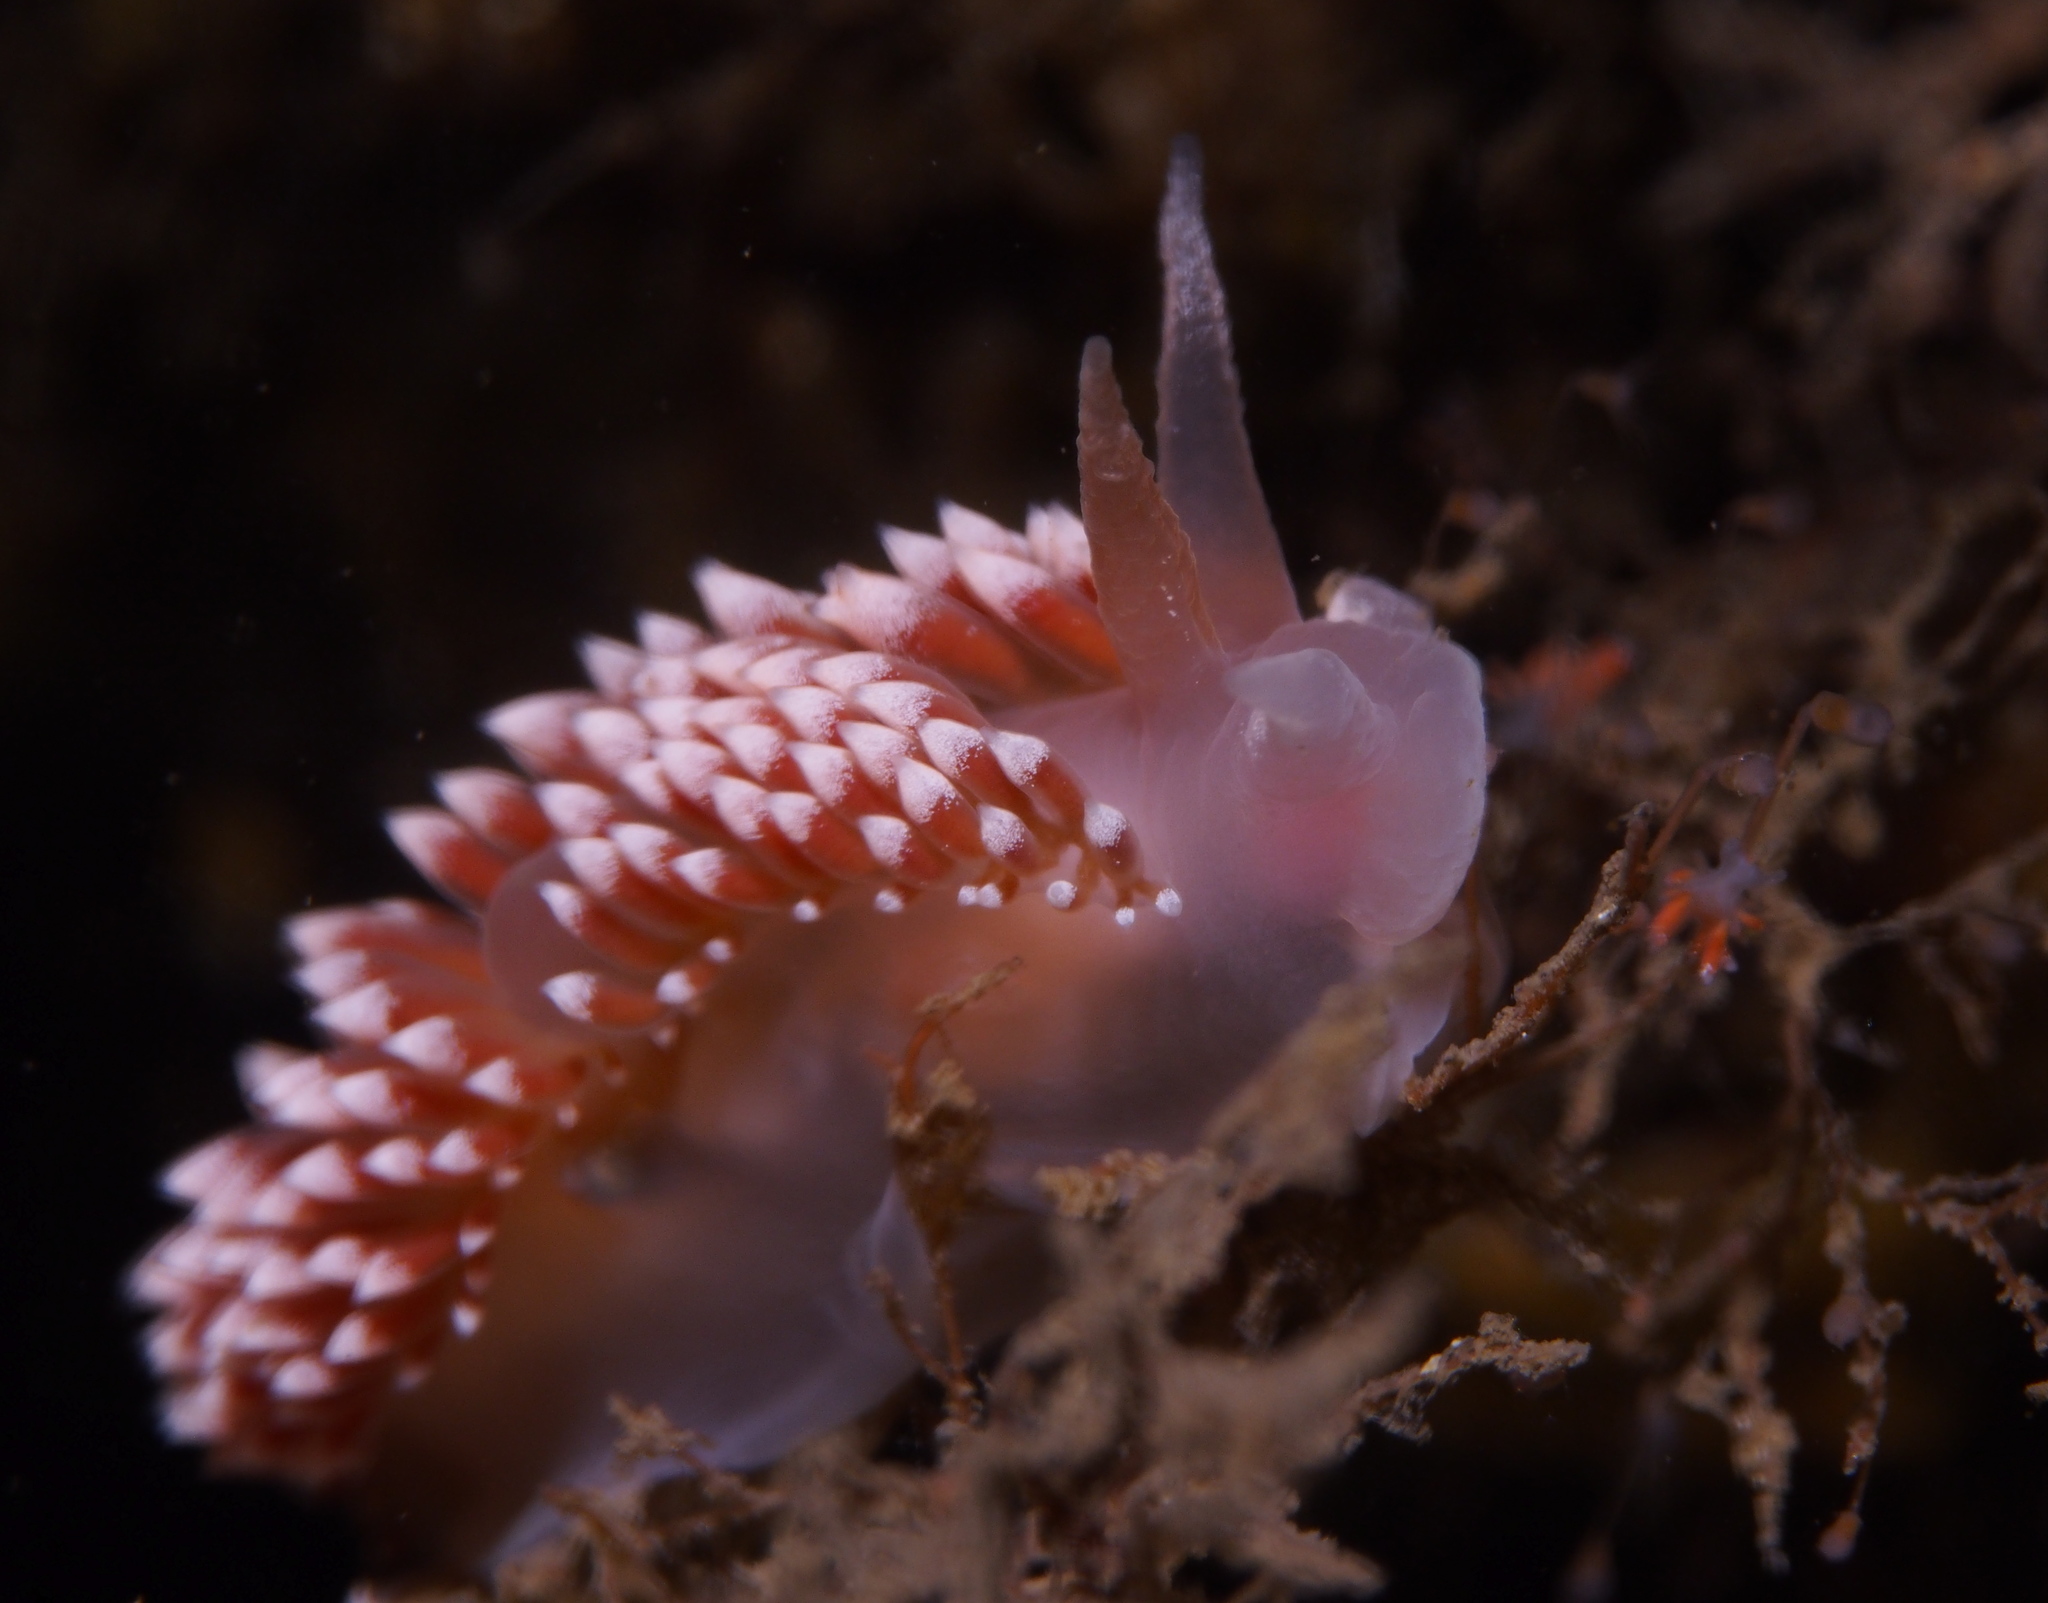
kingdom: Animalia
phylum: Mollusca
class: Gastropoda
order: Nudibranchia
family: Coryphellidae
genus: Coryphella
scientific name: Coryphella verrucosa
